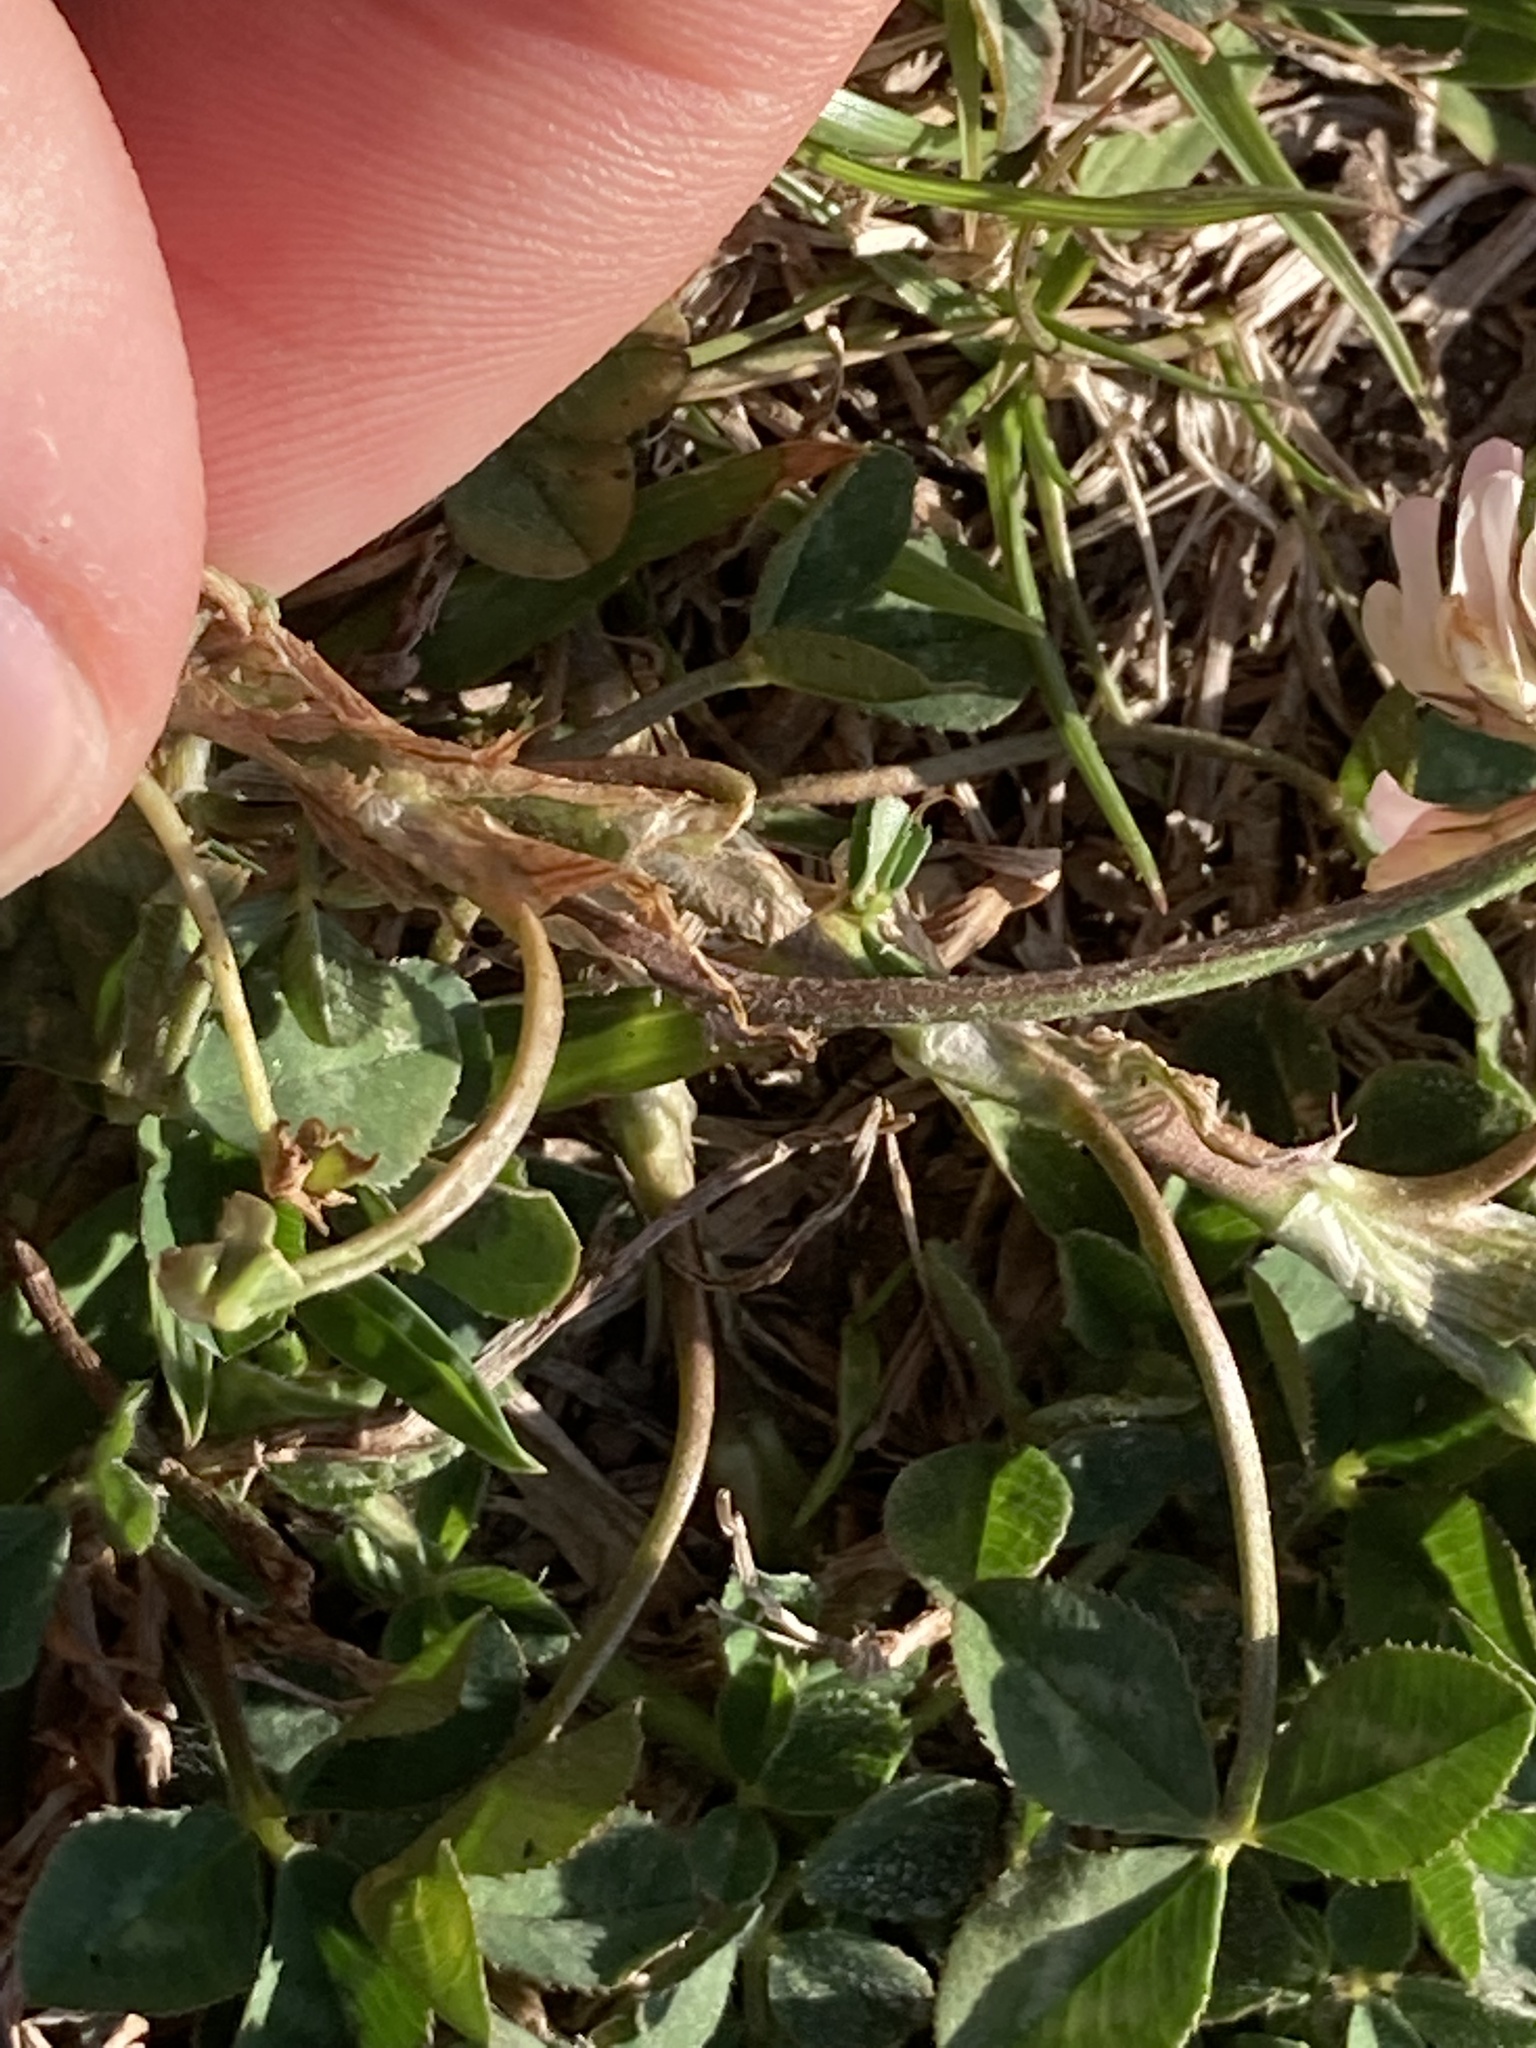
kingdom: Plantae
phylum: Tracheophyta
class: Magnoliopsida
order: Fabales
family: Fabaceae
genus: Trifolium
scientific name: Trifolium repens
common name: White clover
